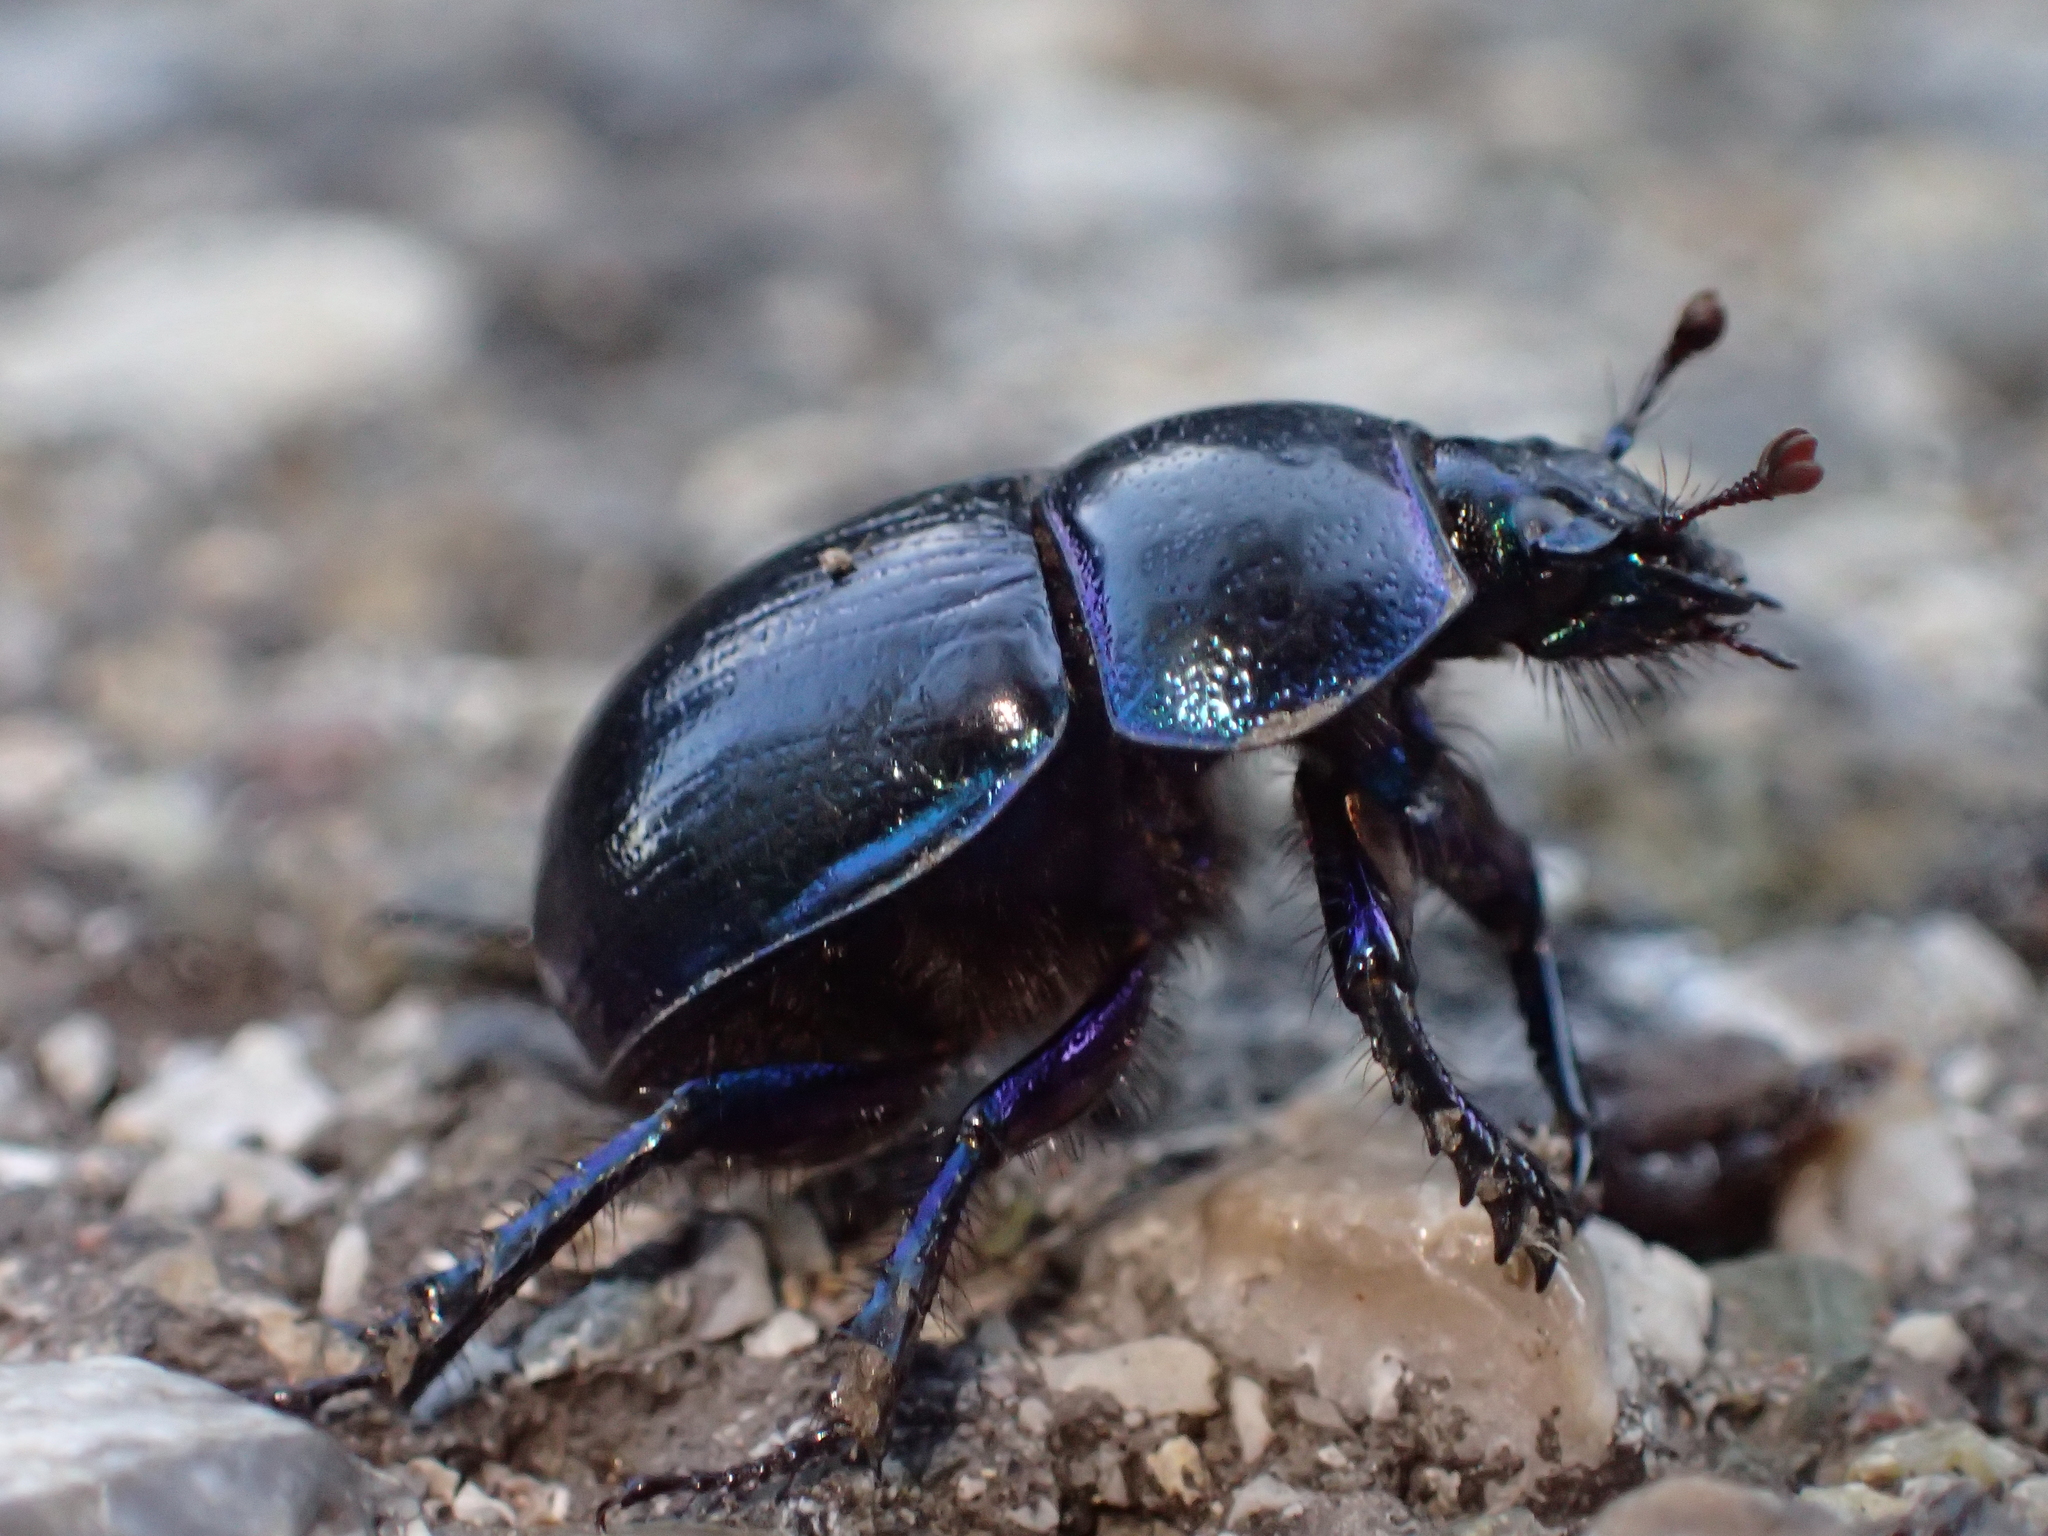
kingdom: Animalia
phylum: Arthropoda
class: Insecta
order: Coleoptera
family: Geotrupidae
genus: Anoplotrupes
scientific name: Anoplotrupes stercorosus
